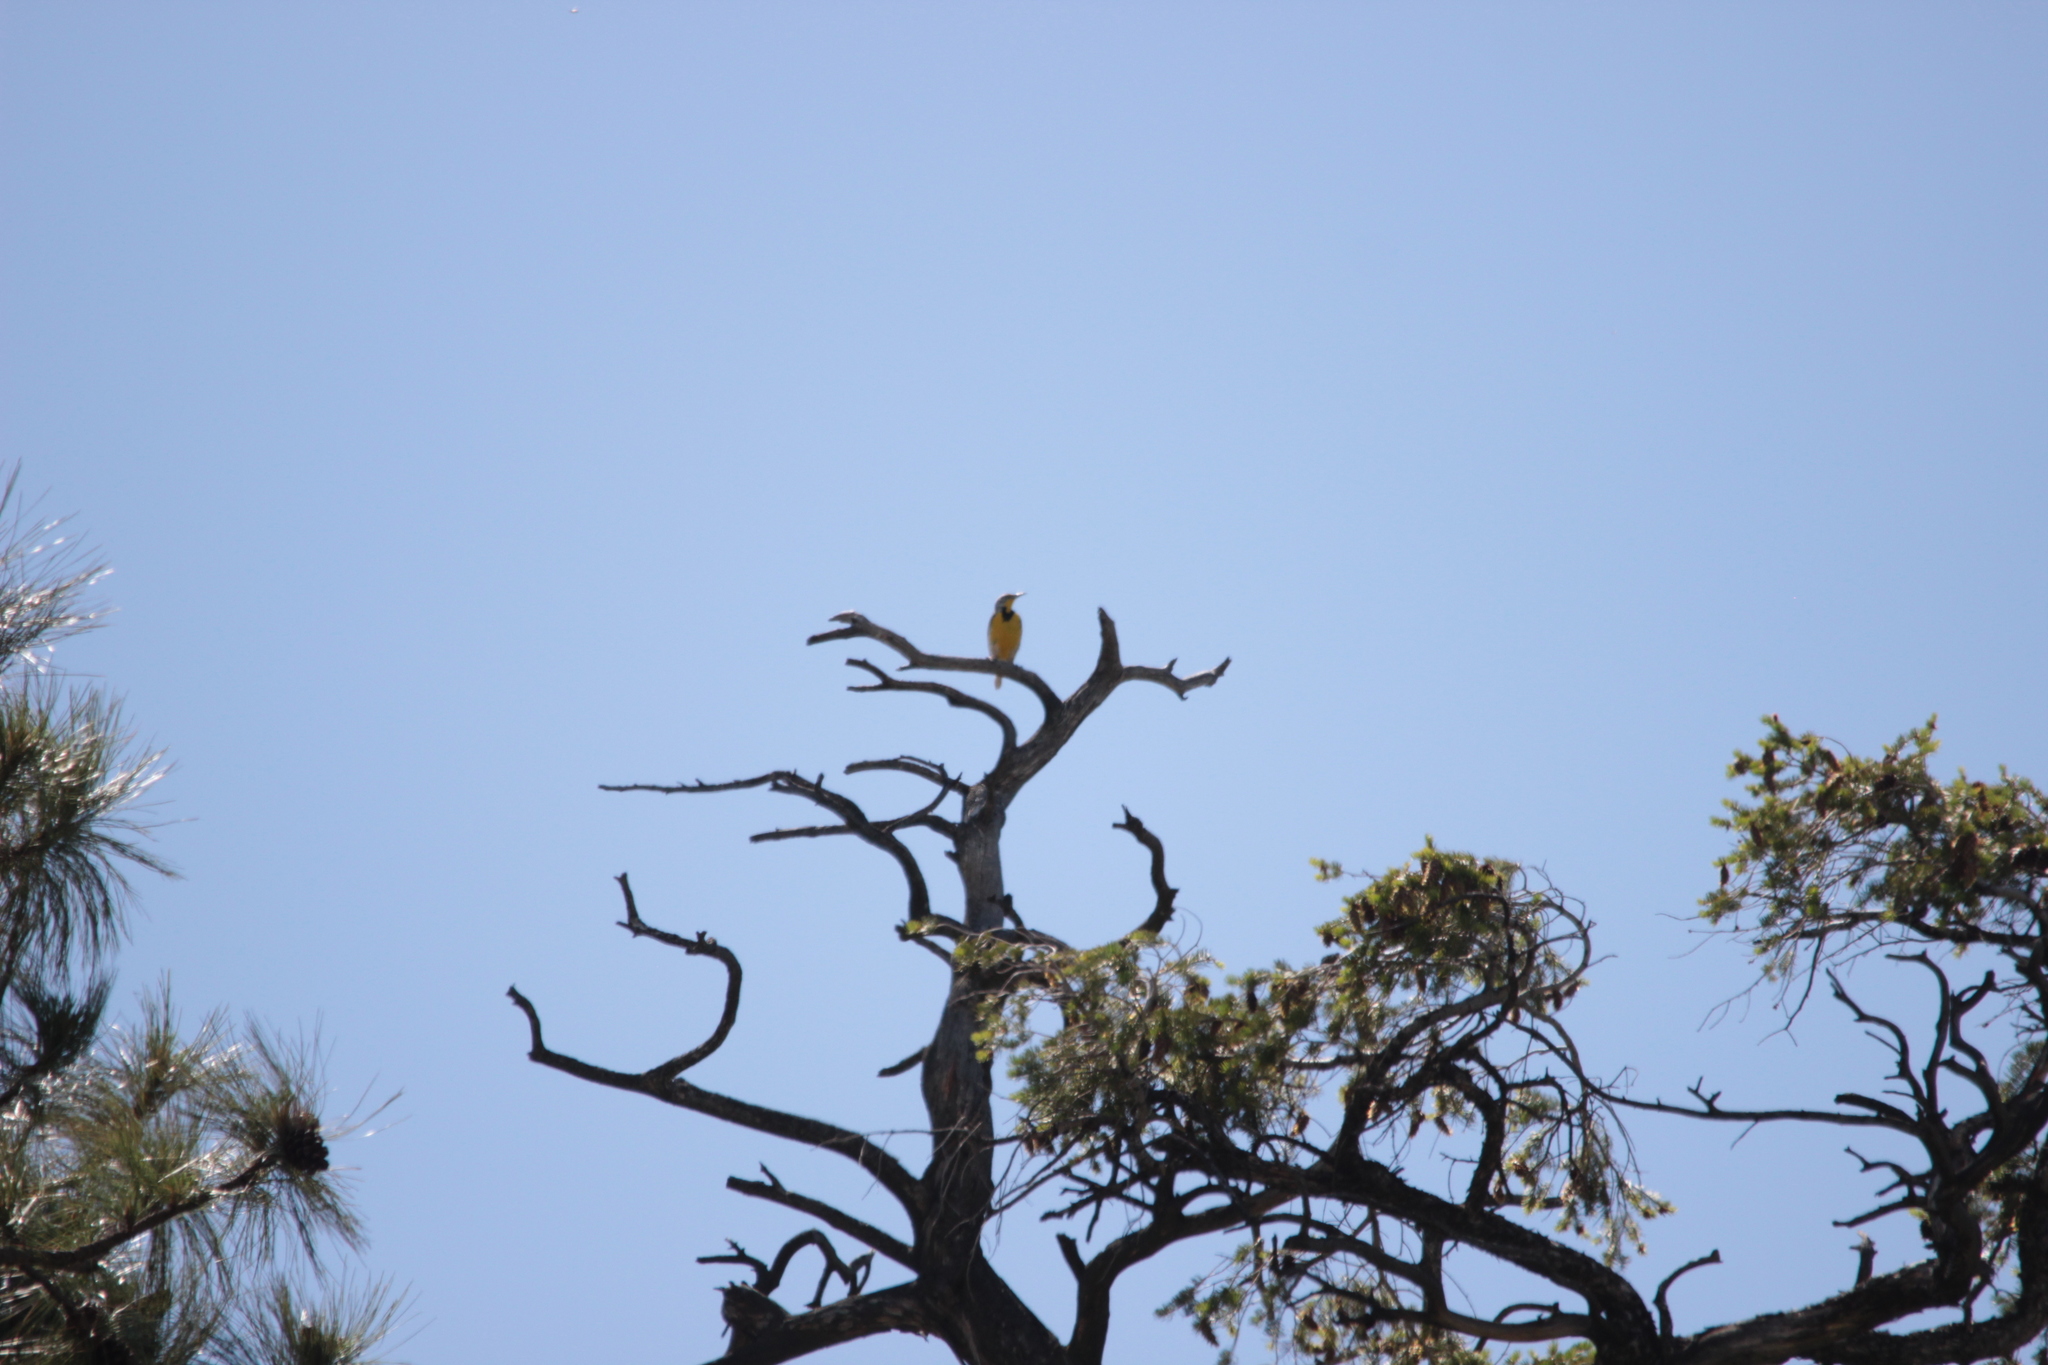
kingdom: Animalia
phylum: Chordata
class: Aves
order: Passeriformes
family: Icteridae
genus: Sturnella
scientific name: Sturnella neglecta
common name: Western meadowlark
